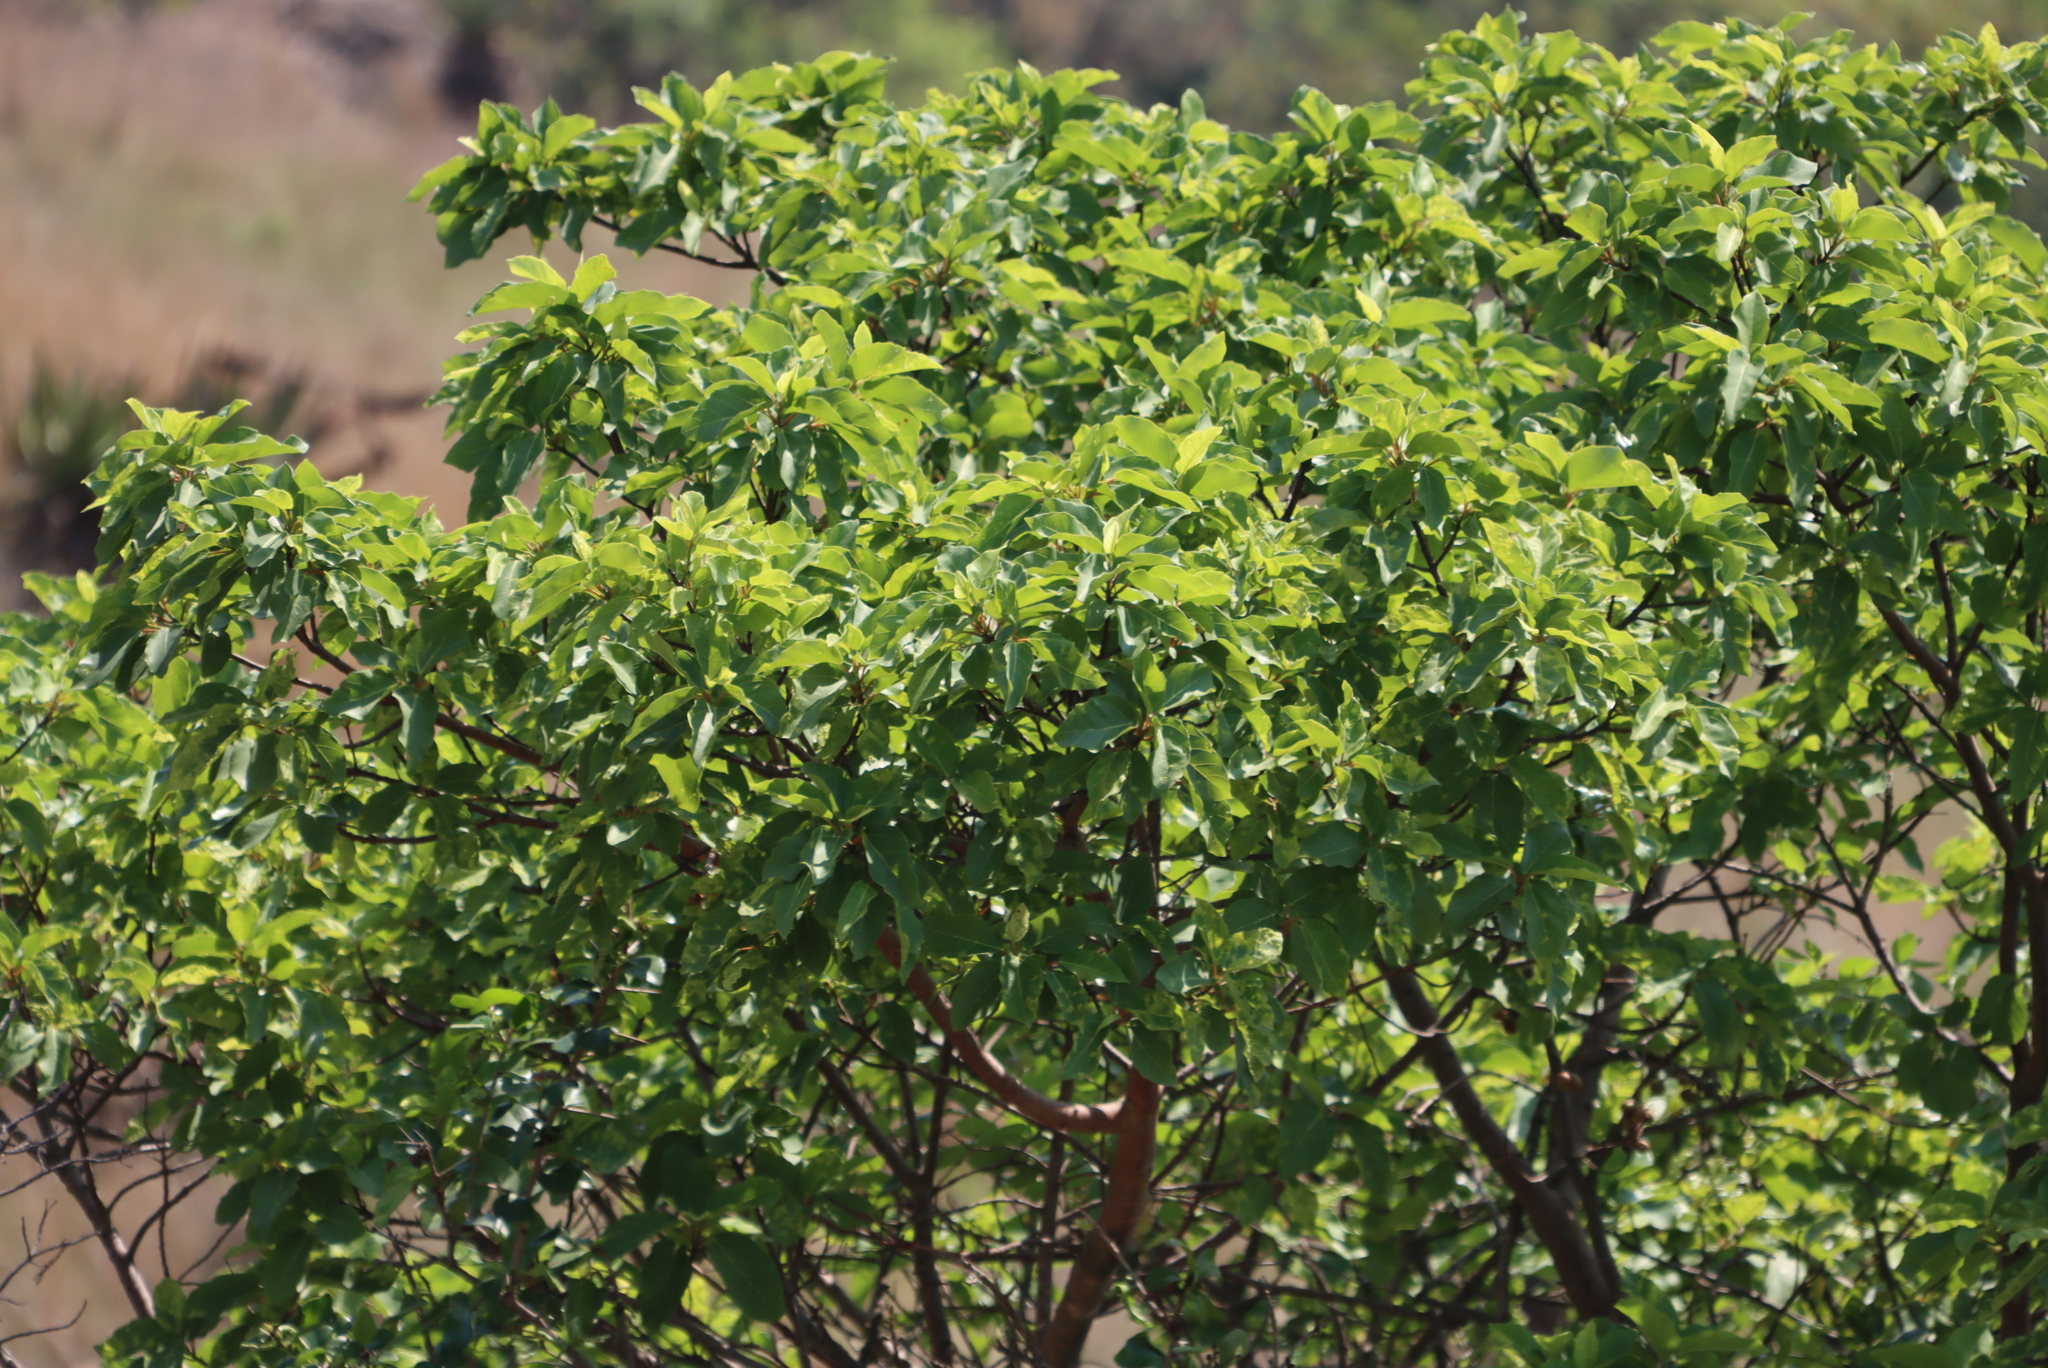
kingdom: Plantae
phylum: Tracheophyta
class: Magnoliopsida
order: Rosales
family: Moraceae
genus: Ficus
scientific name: Ficus sur
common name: Cape fig
